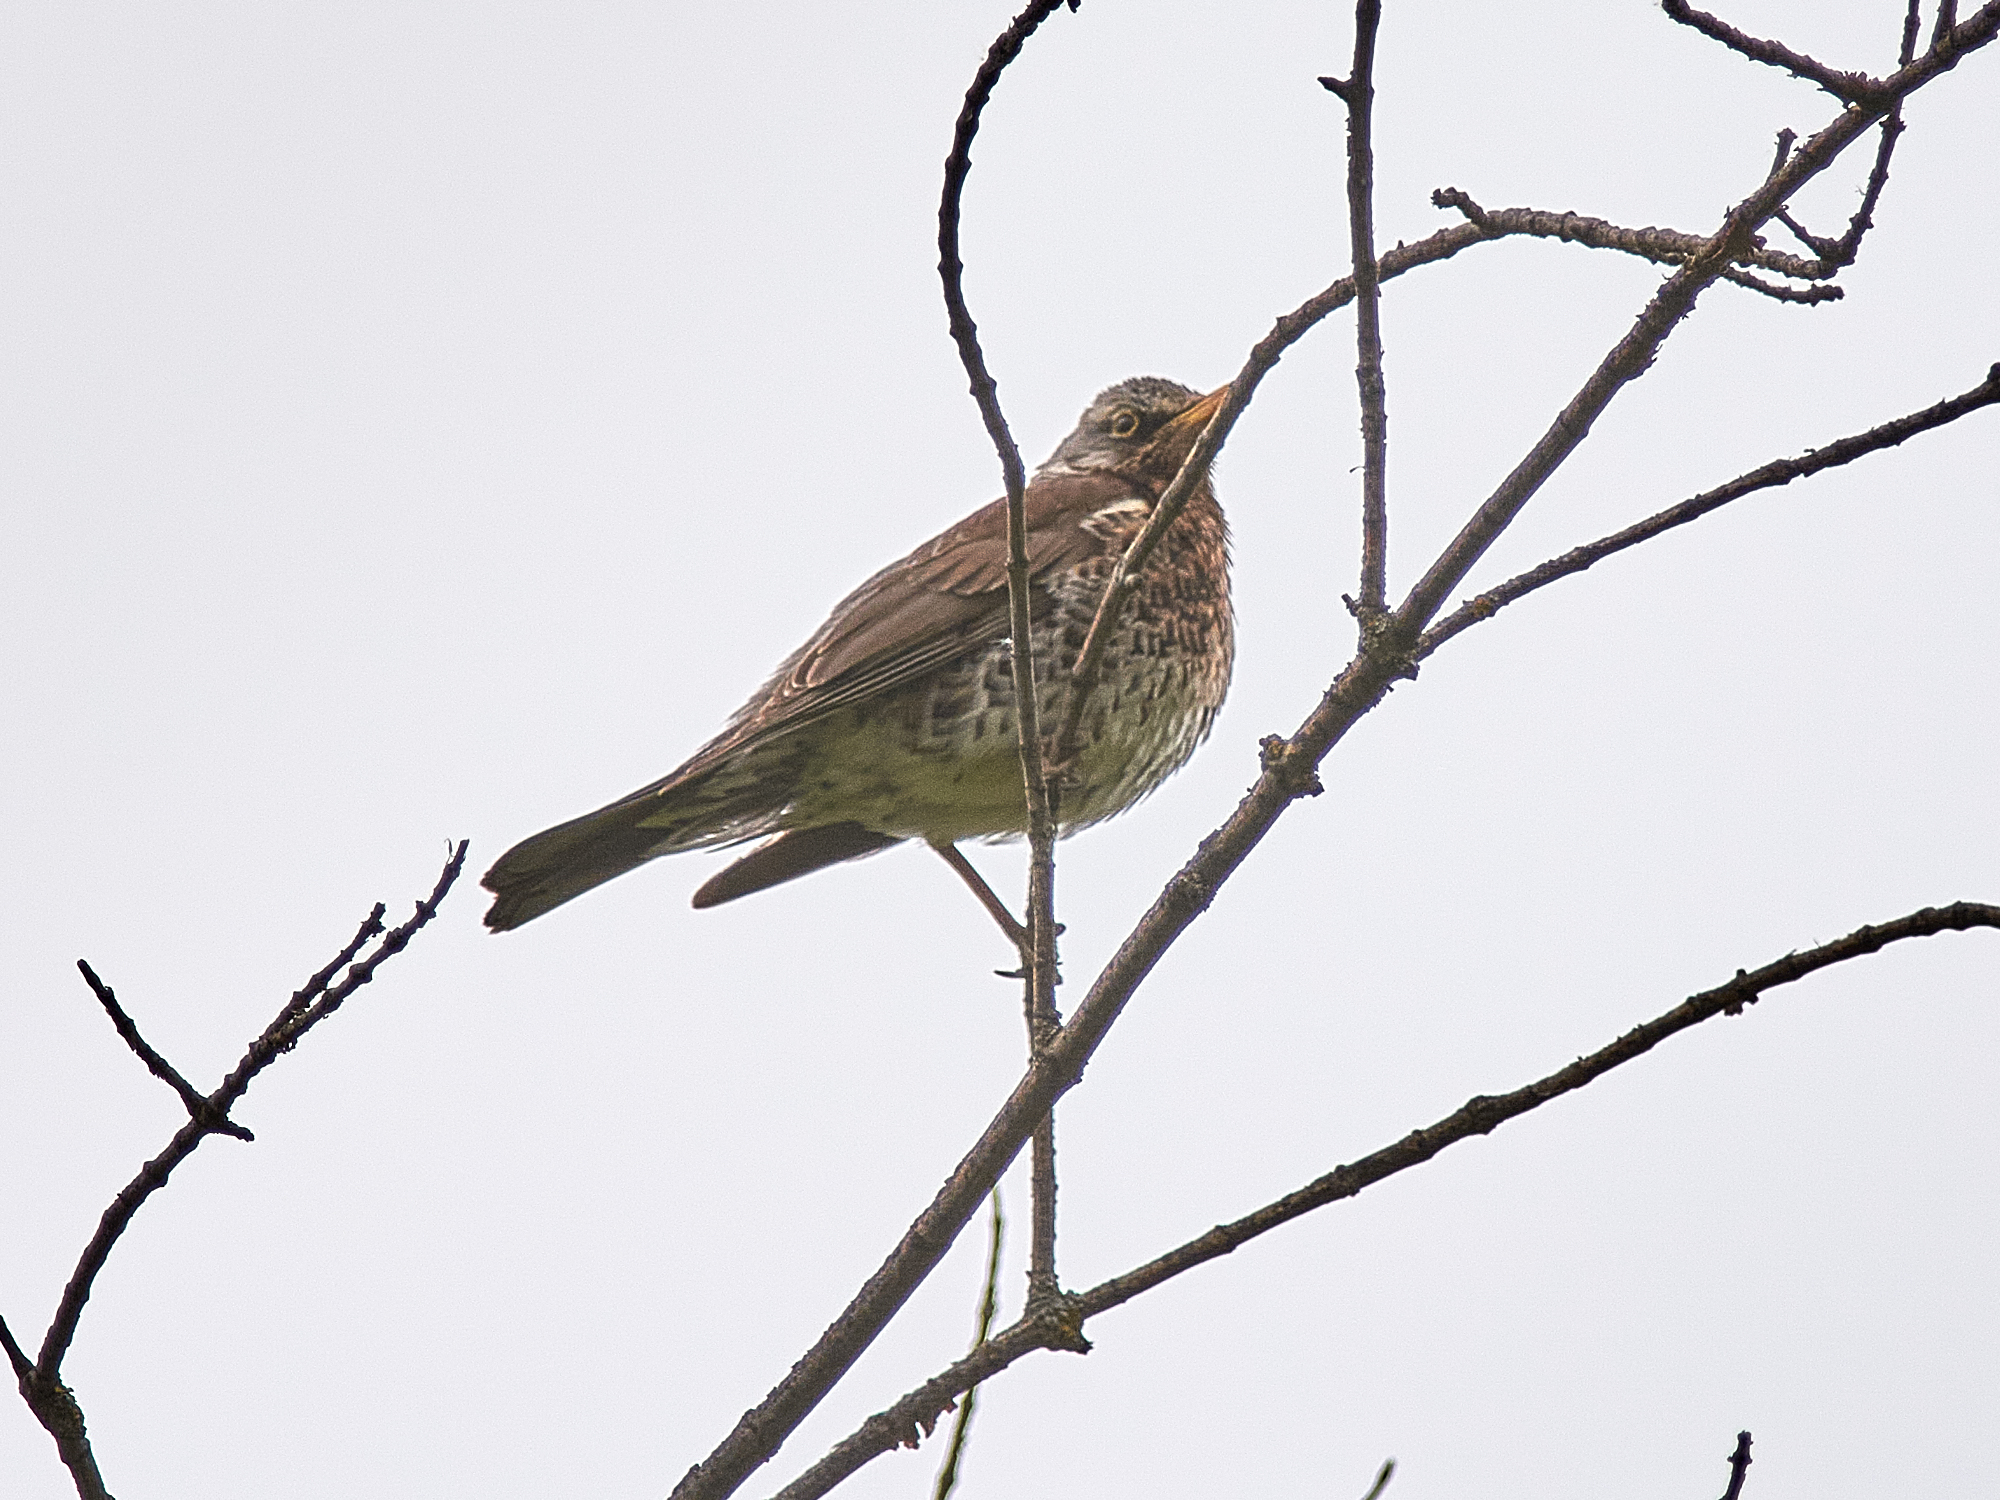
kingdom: Animalia
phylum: Chordata
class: Aves
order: Passeriformes
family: Turdidae
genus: Turdus
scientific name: Turdus pilaris
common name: Fieldfare
